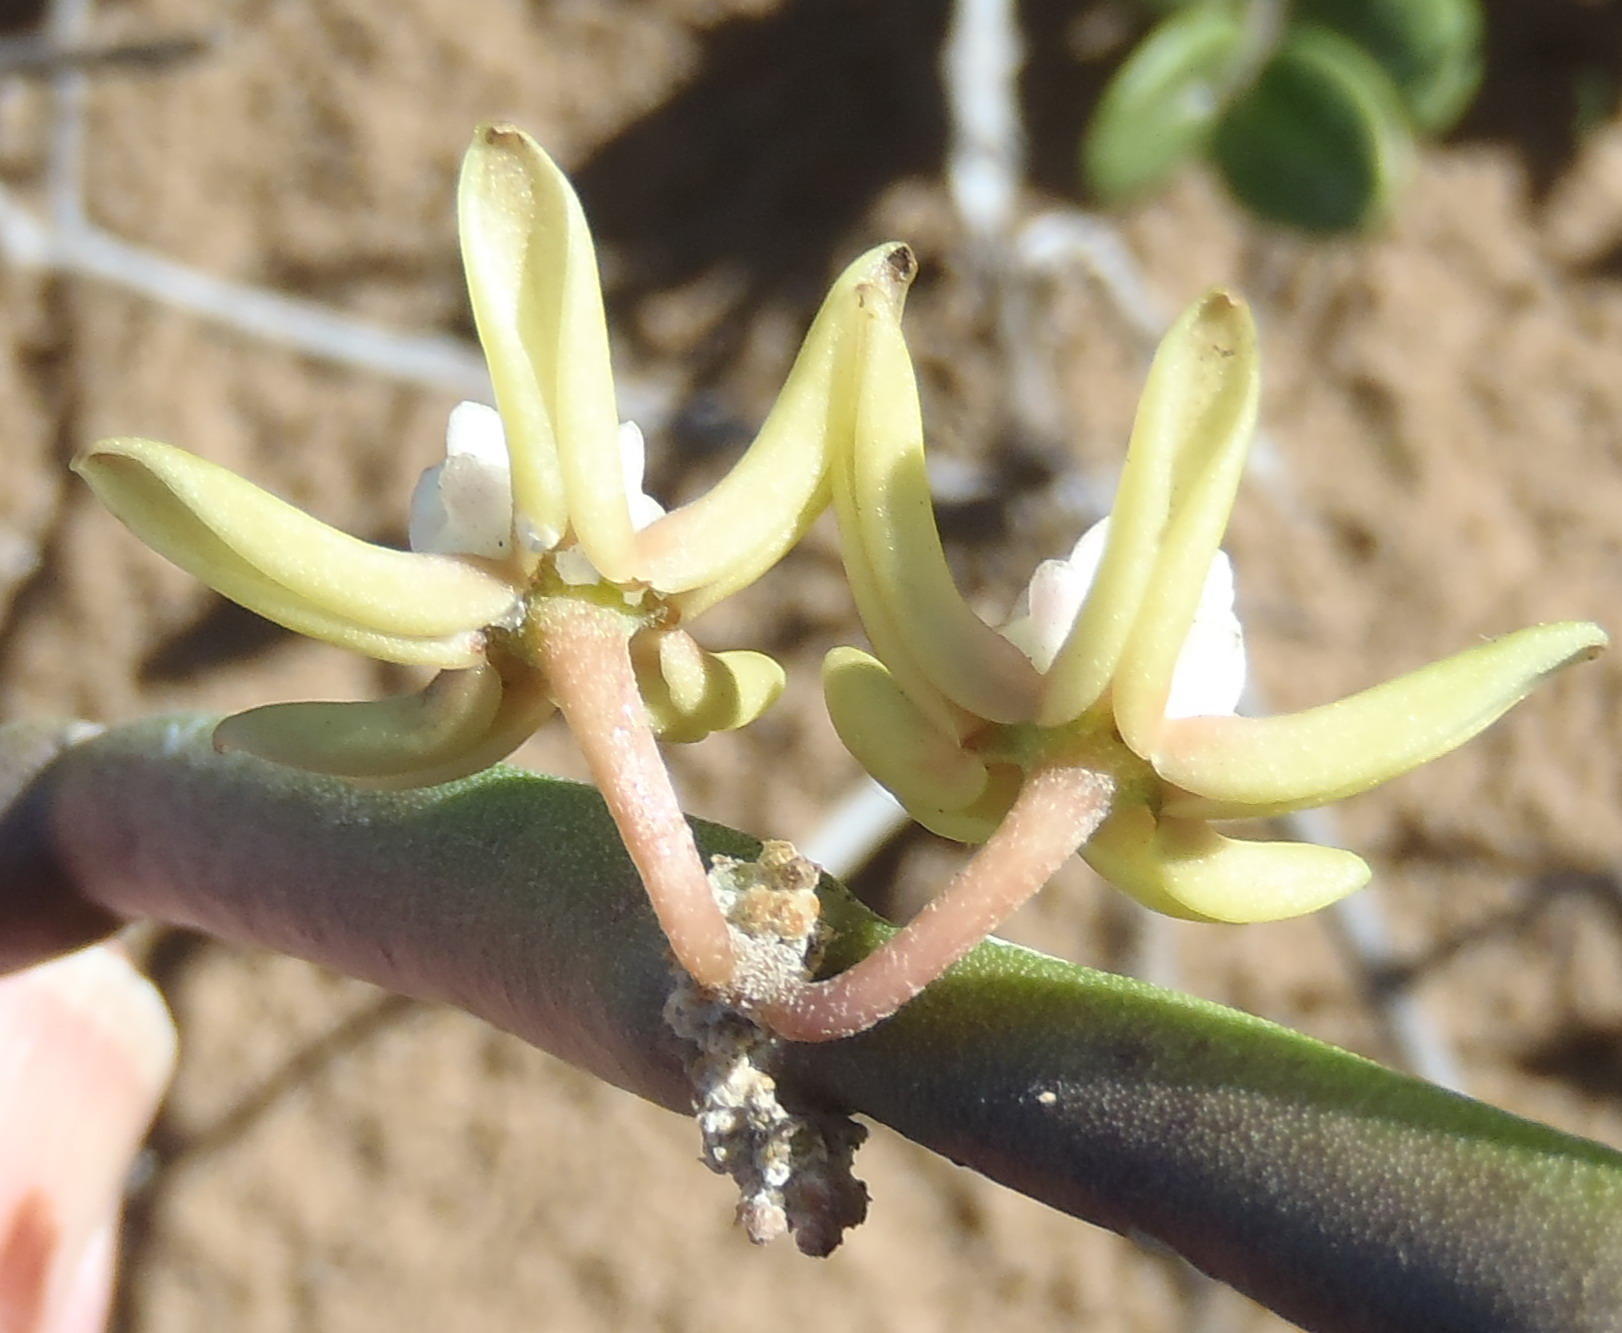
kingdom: Plantae
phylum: Tracheophyta
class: Magnoliopsida
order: Gentianales
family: Apocynaceae
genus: Cynanchum
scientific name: Cynanchum viminale
